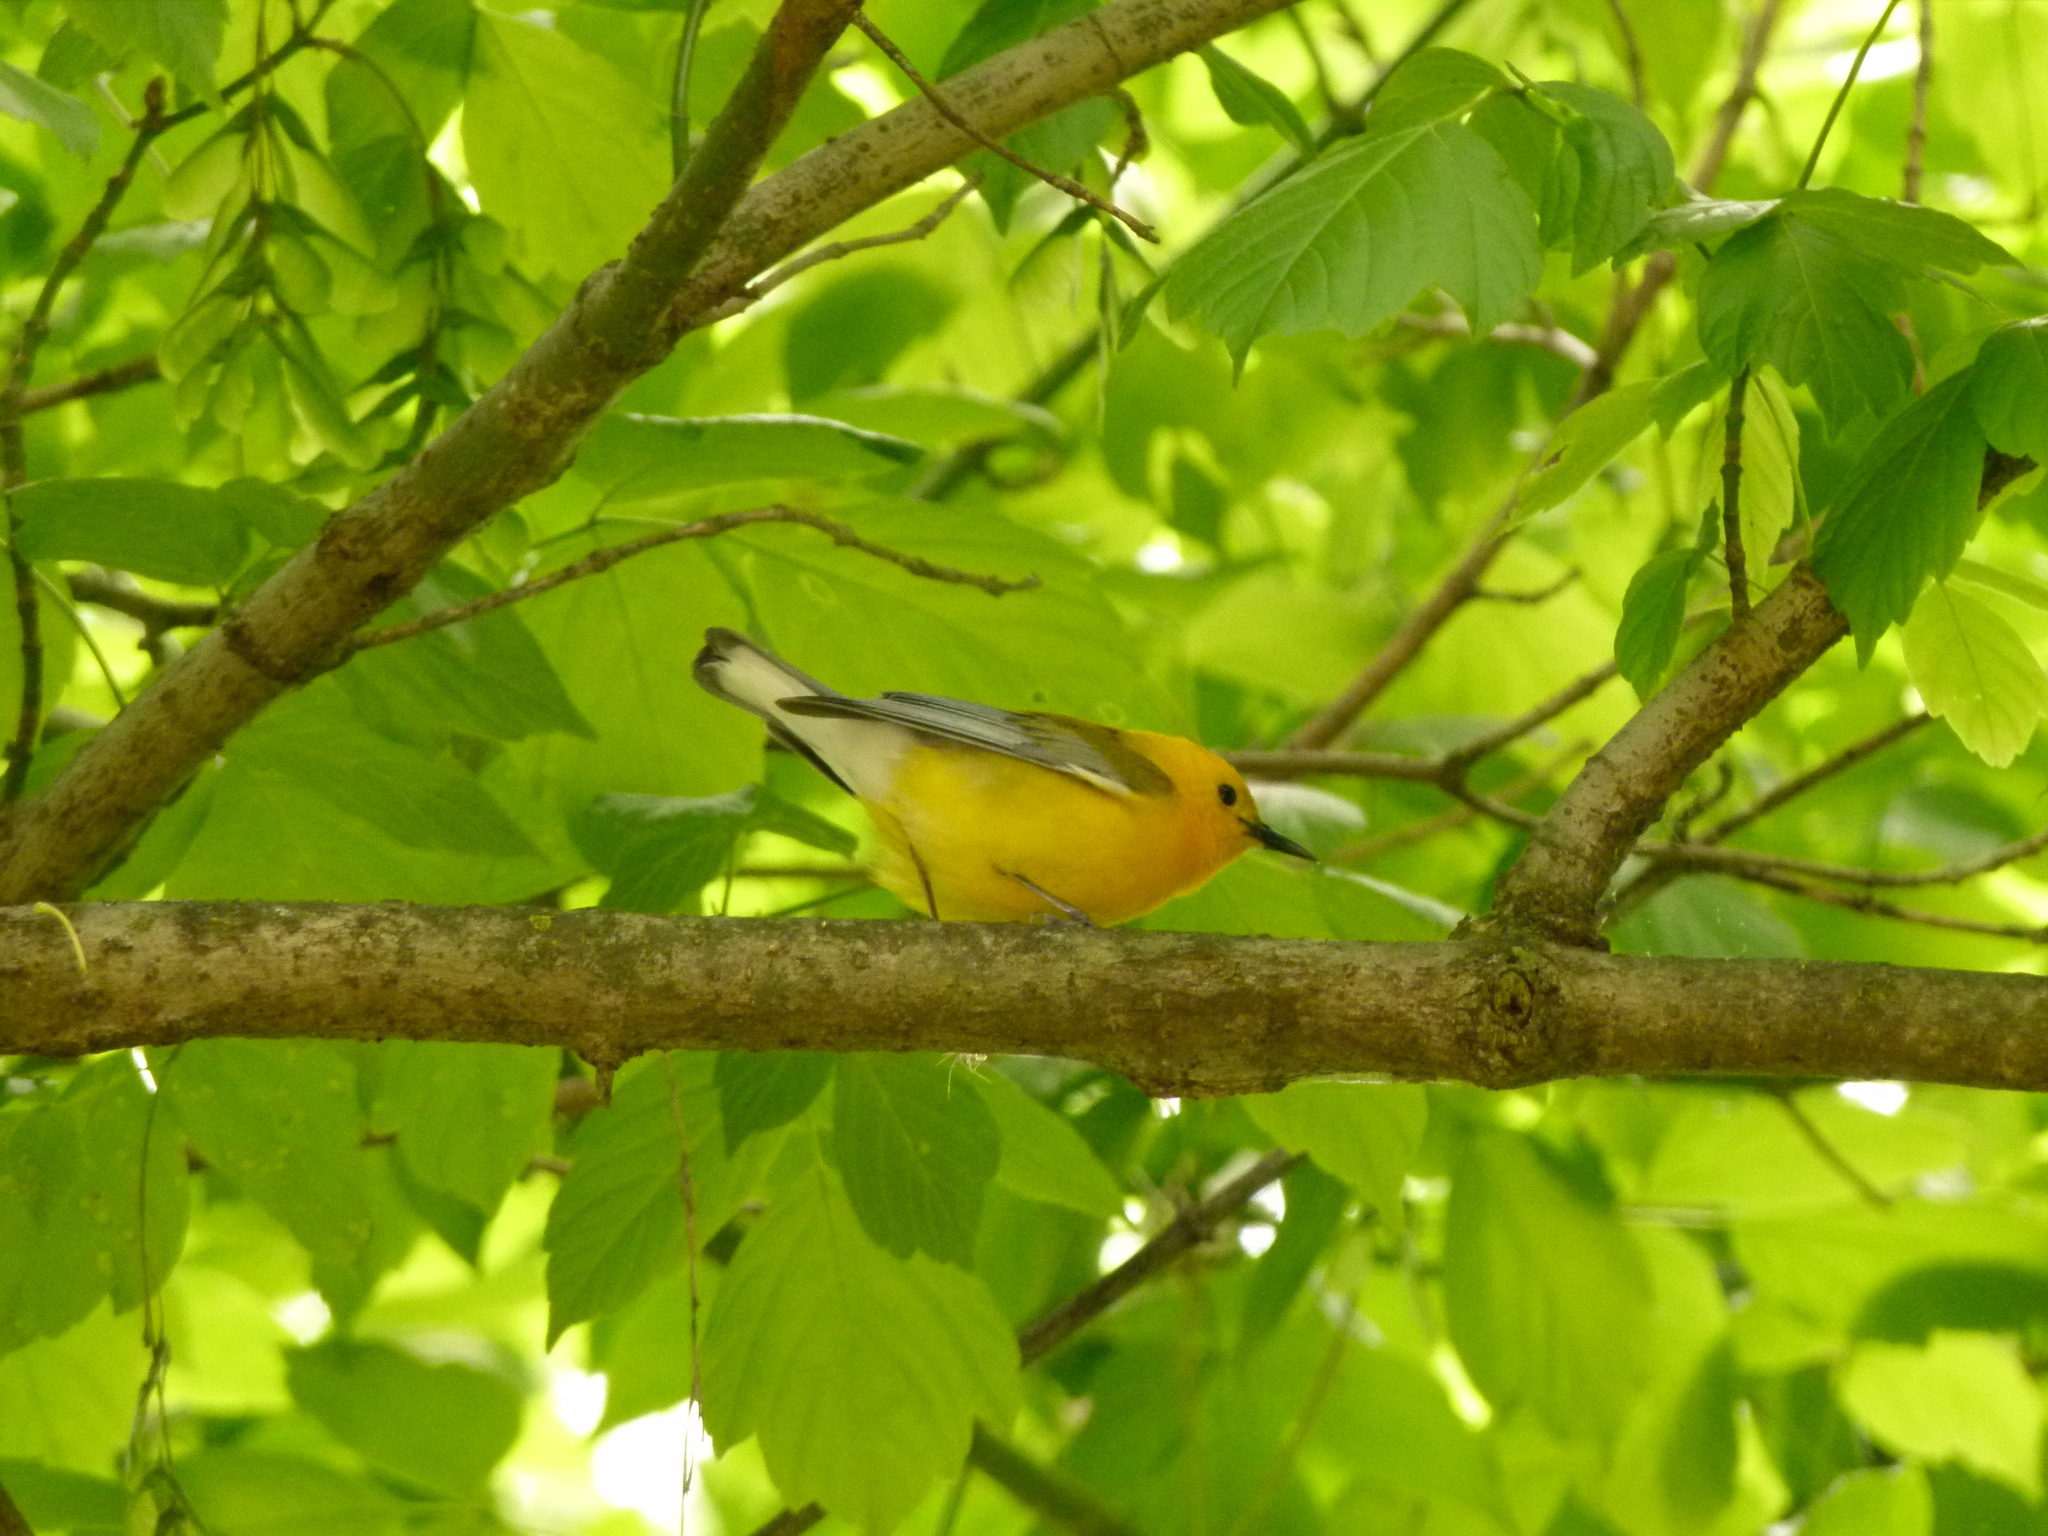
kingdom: Animalia
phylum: Chordata
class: Aves
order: Passeriformes
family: Parulidae
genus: Protonotaria
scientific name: Protonotaria citrea
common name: Prothonotary warbler
